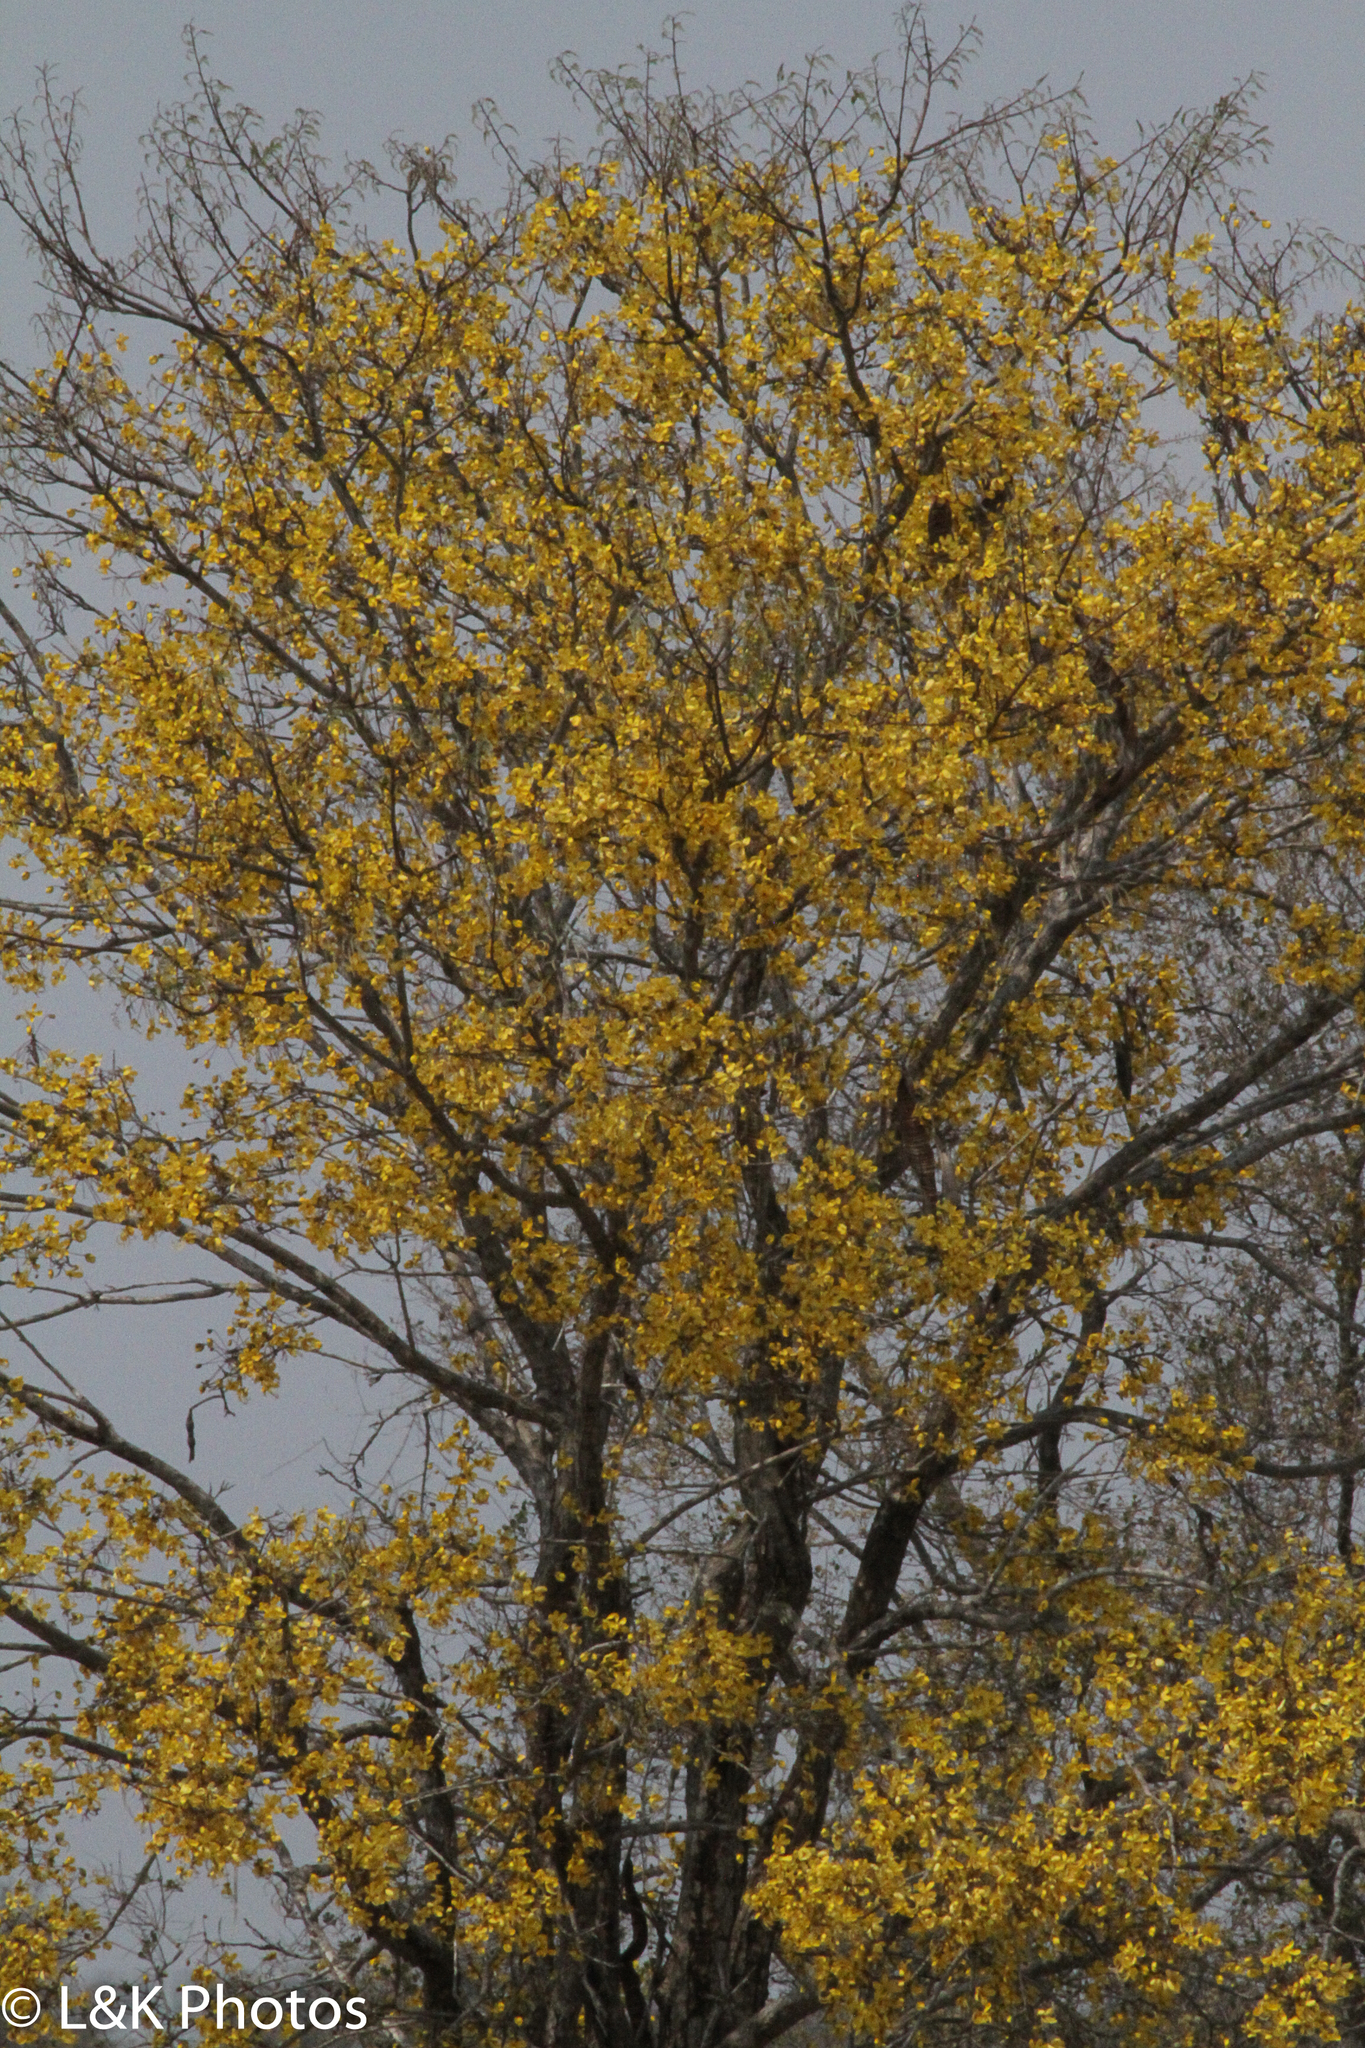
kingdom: Plantae
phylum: Tracheophyta
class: Magnoliopsida
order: Fabales
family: Fabaceae
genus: Cassia
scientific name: Cassia abbreviata
